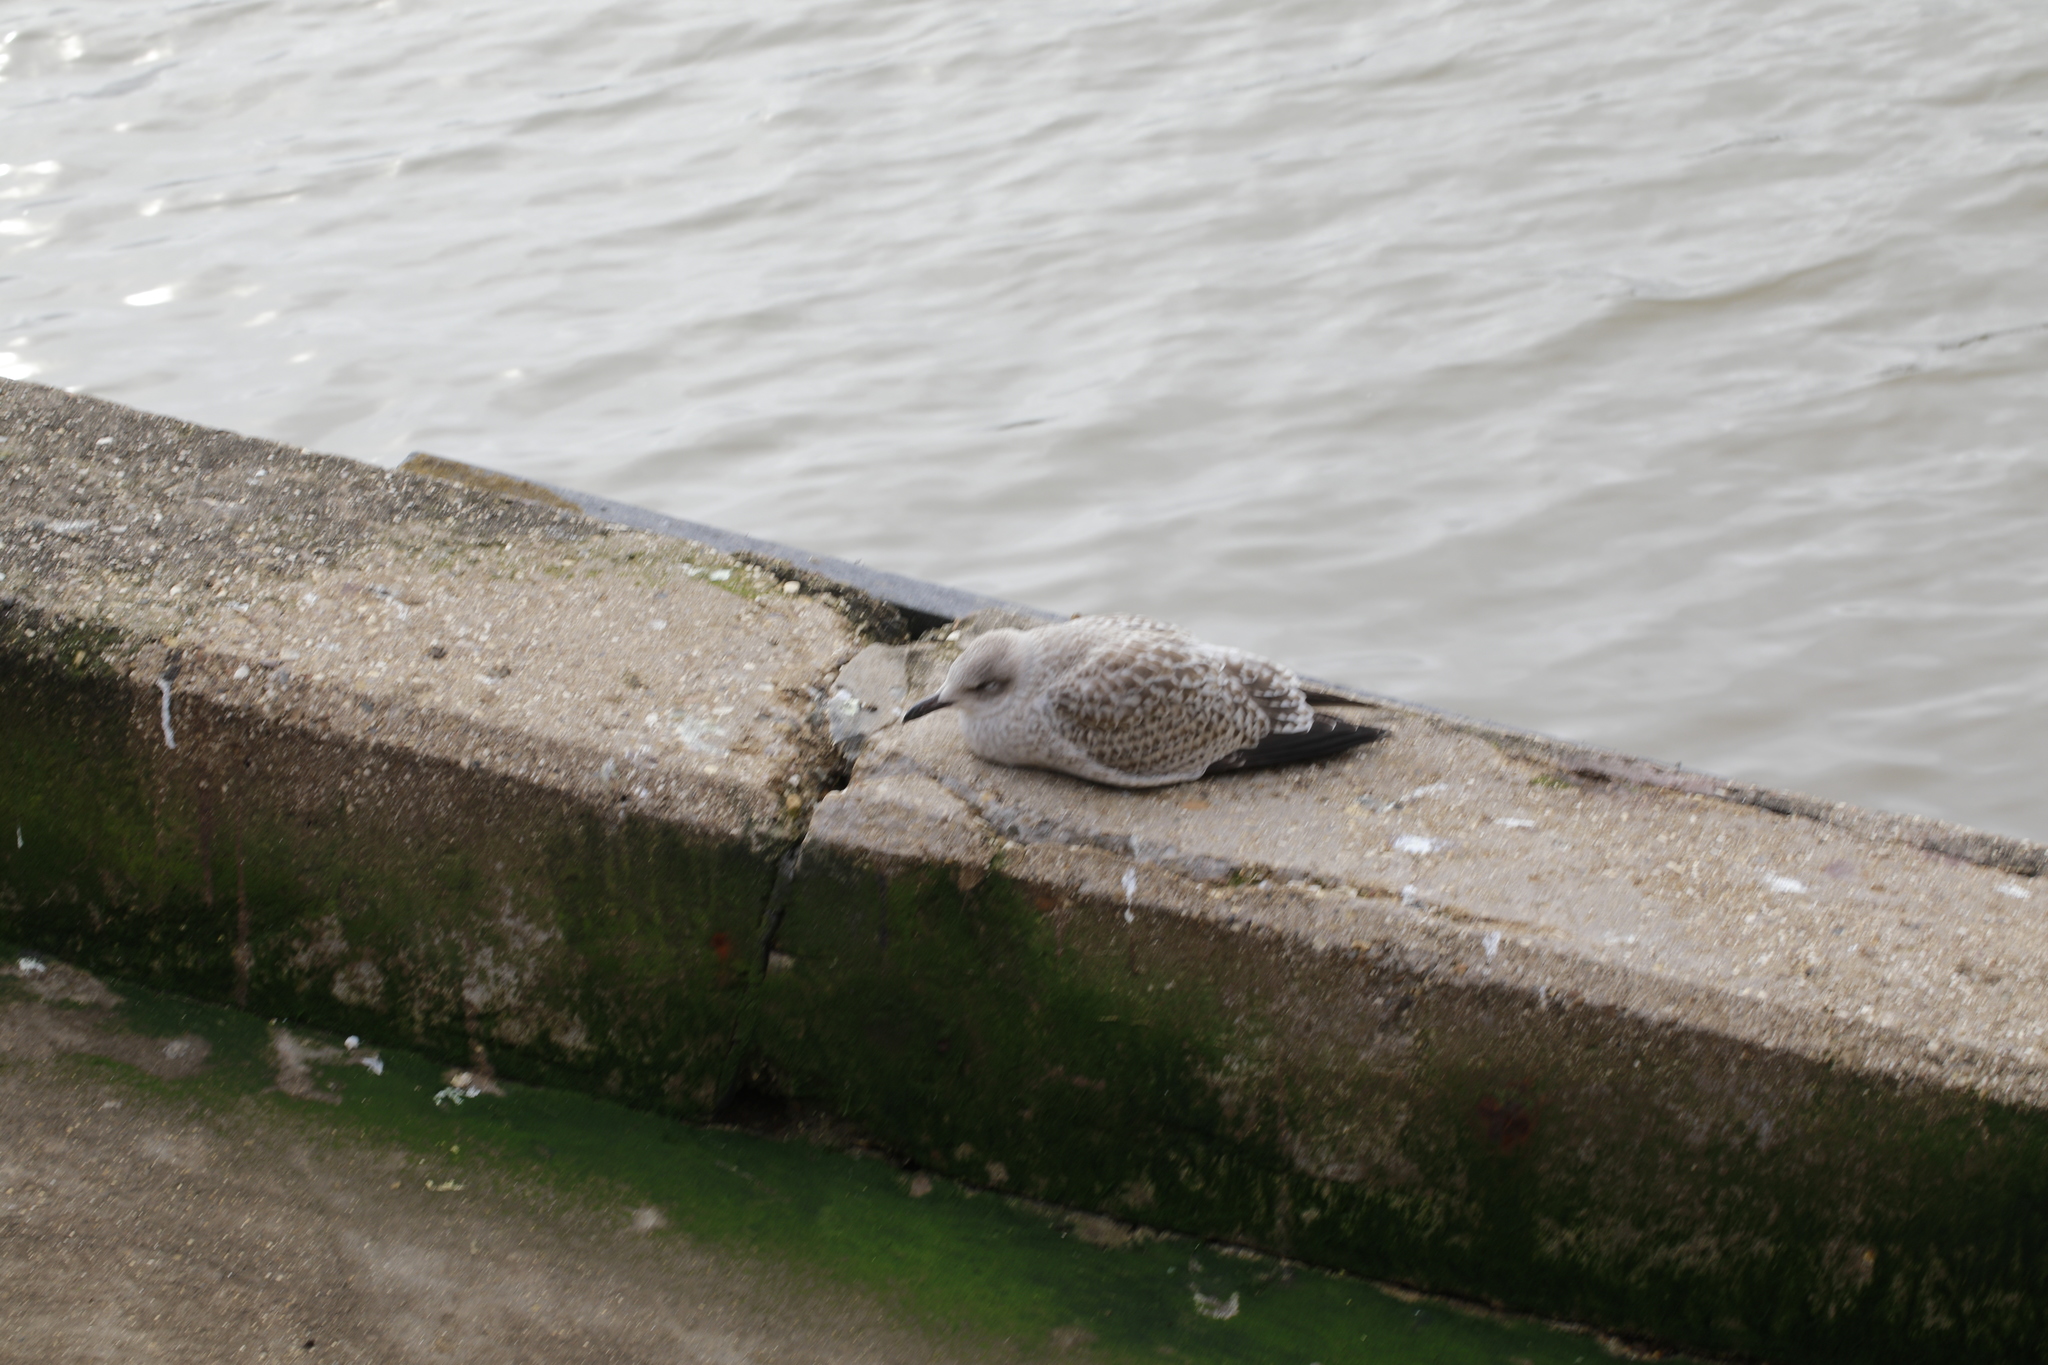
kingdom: Animalia
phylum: Chordata
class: Aves
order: Charadriiformes
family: Laridae
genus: Larus
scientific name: Larus argentatus
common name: Herring gull
